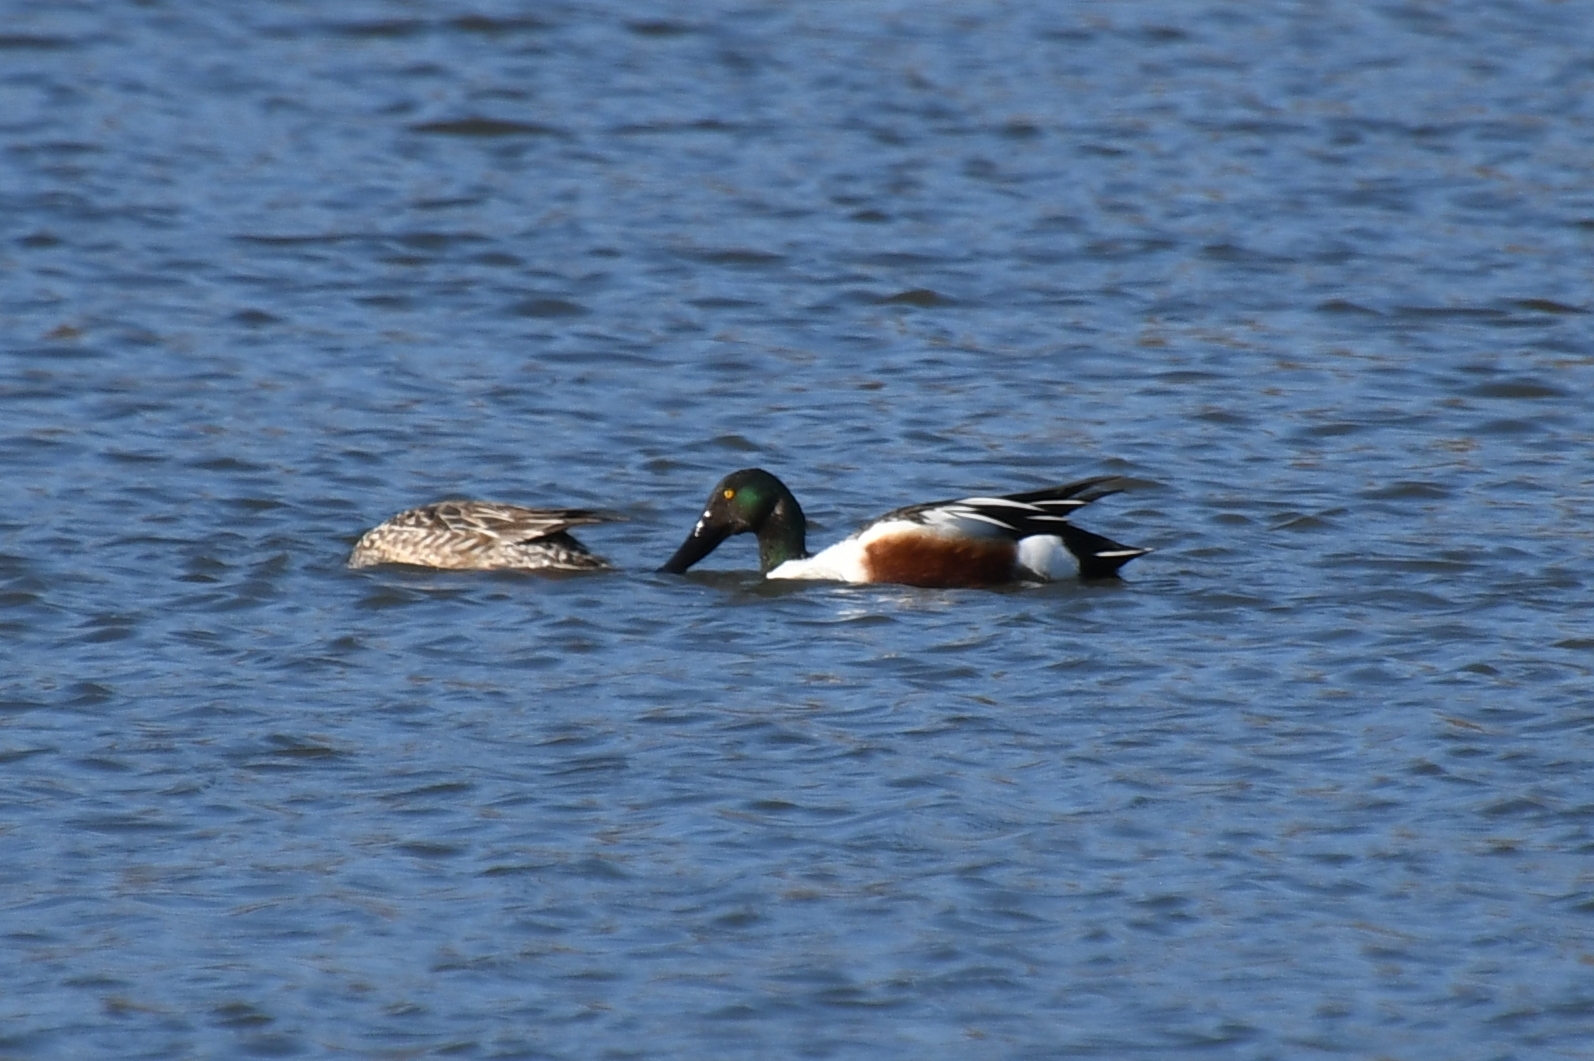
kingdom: Animalia
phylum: Chordata
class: Aves
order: Anseriformes
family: Anatidae
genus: Spatula
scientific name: Spatula clypeata
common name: Northern shoveler
